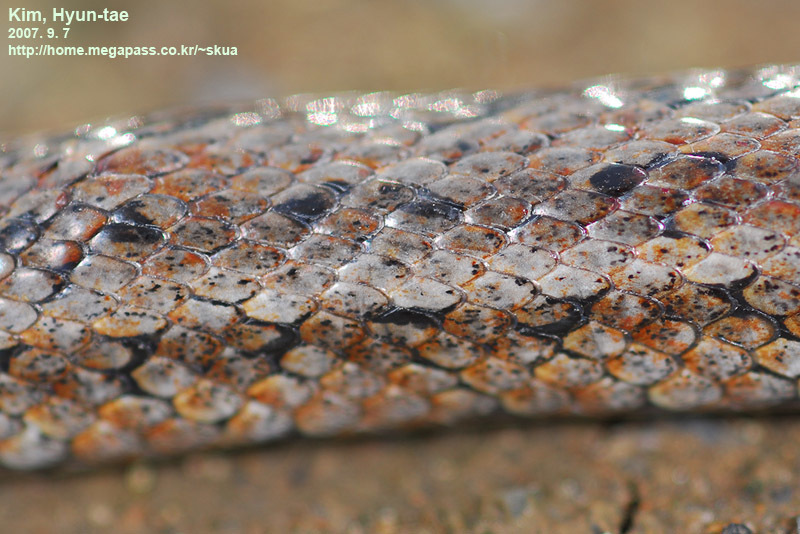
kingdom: Animalia
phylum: Chordata
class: Squamata
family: Colubridae
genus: Oocatochus
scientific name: Oocatochus rufodorsatus
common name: Frog-eating rat snake
